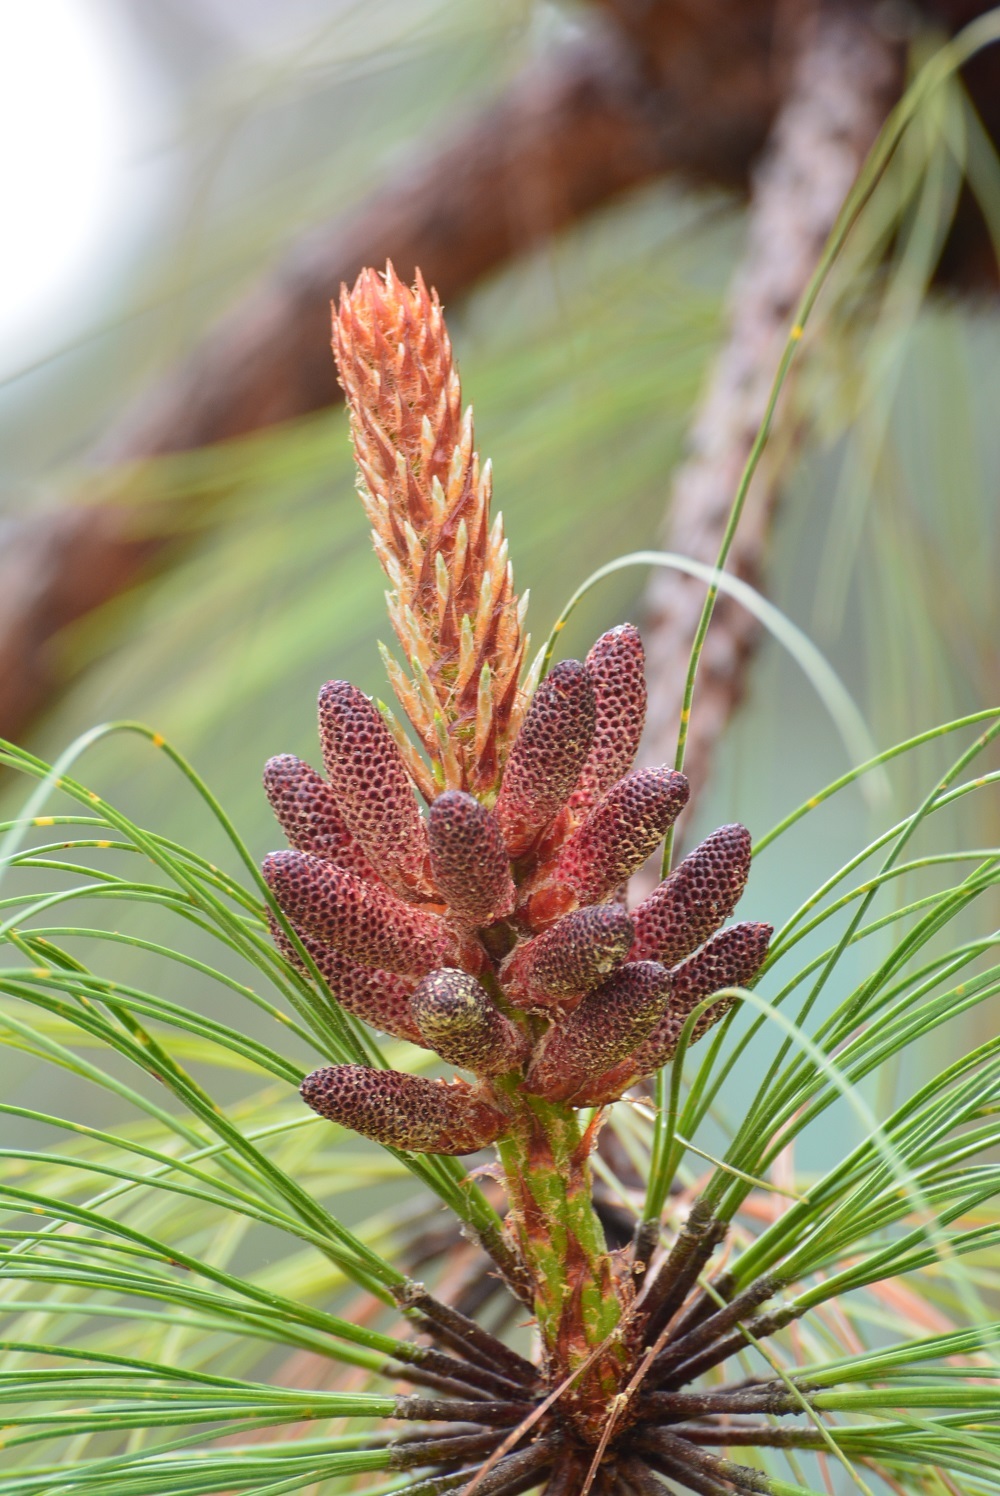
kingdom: Plantae
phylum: Tracheophyta
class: Pinopsida
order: Pinales
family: Pinaceae
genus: Pinus
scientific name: Pinus devoniana
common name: Michoacan pine
